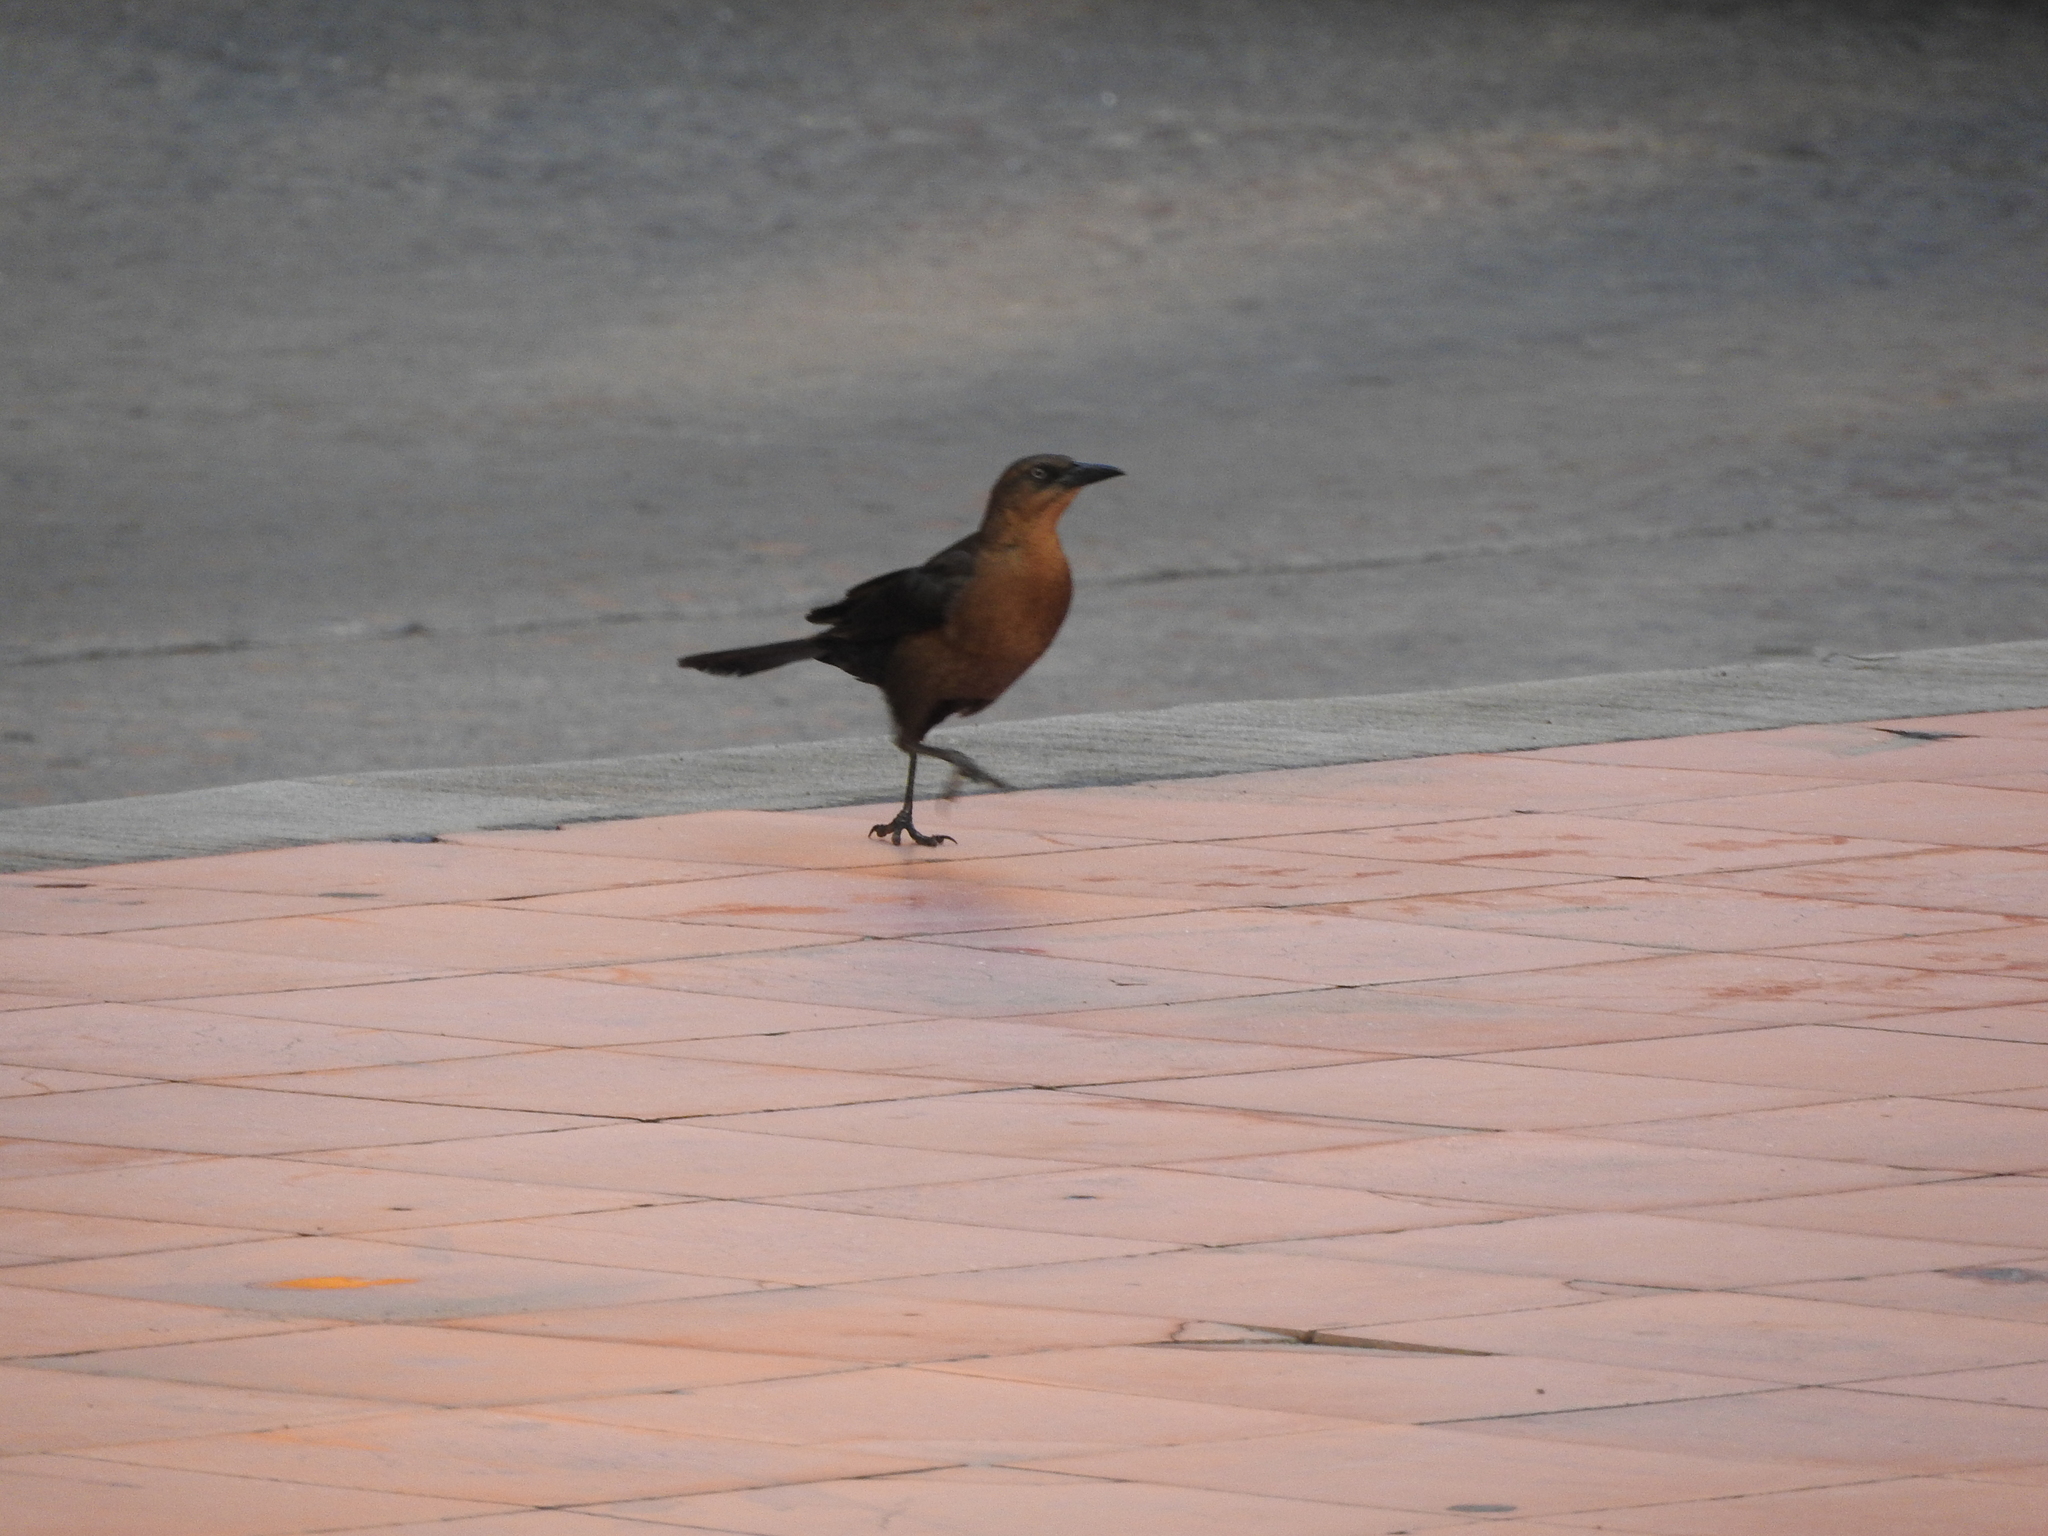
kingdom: Animalia
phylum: Chordata
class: Aves
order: Passeriformes
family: Icteridae
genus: Quiscalus
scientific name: Quiscalus mexicanus
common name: Great-tailed grackle
